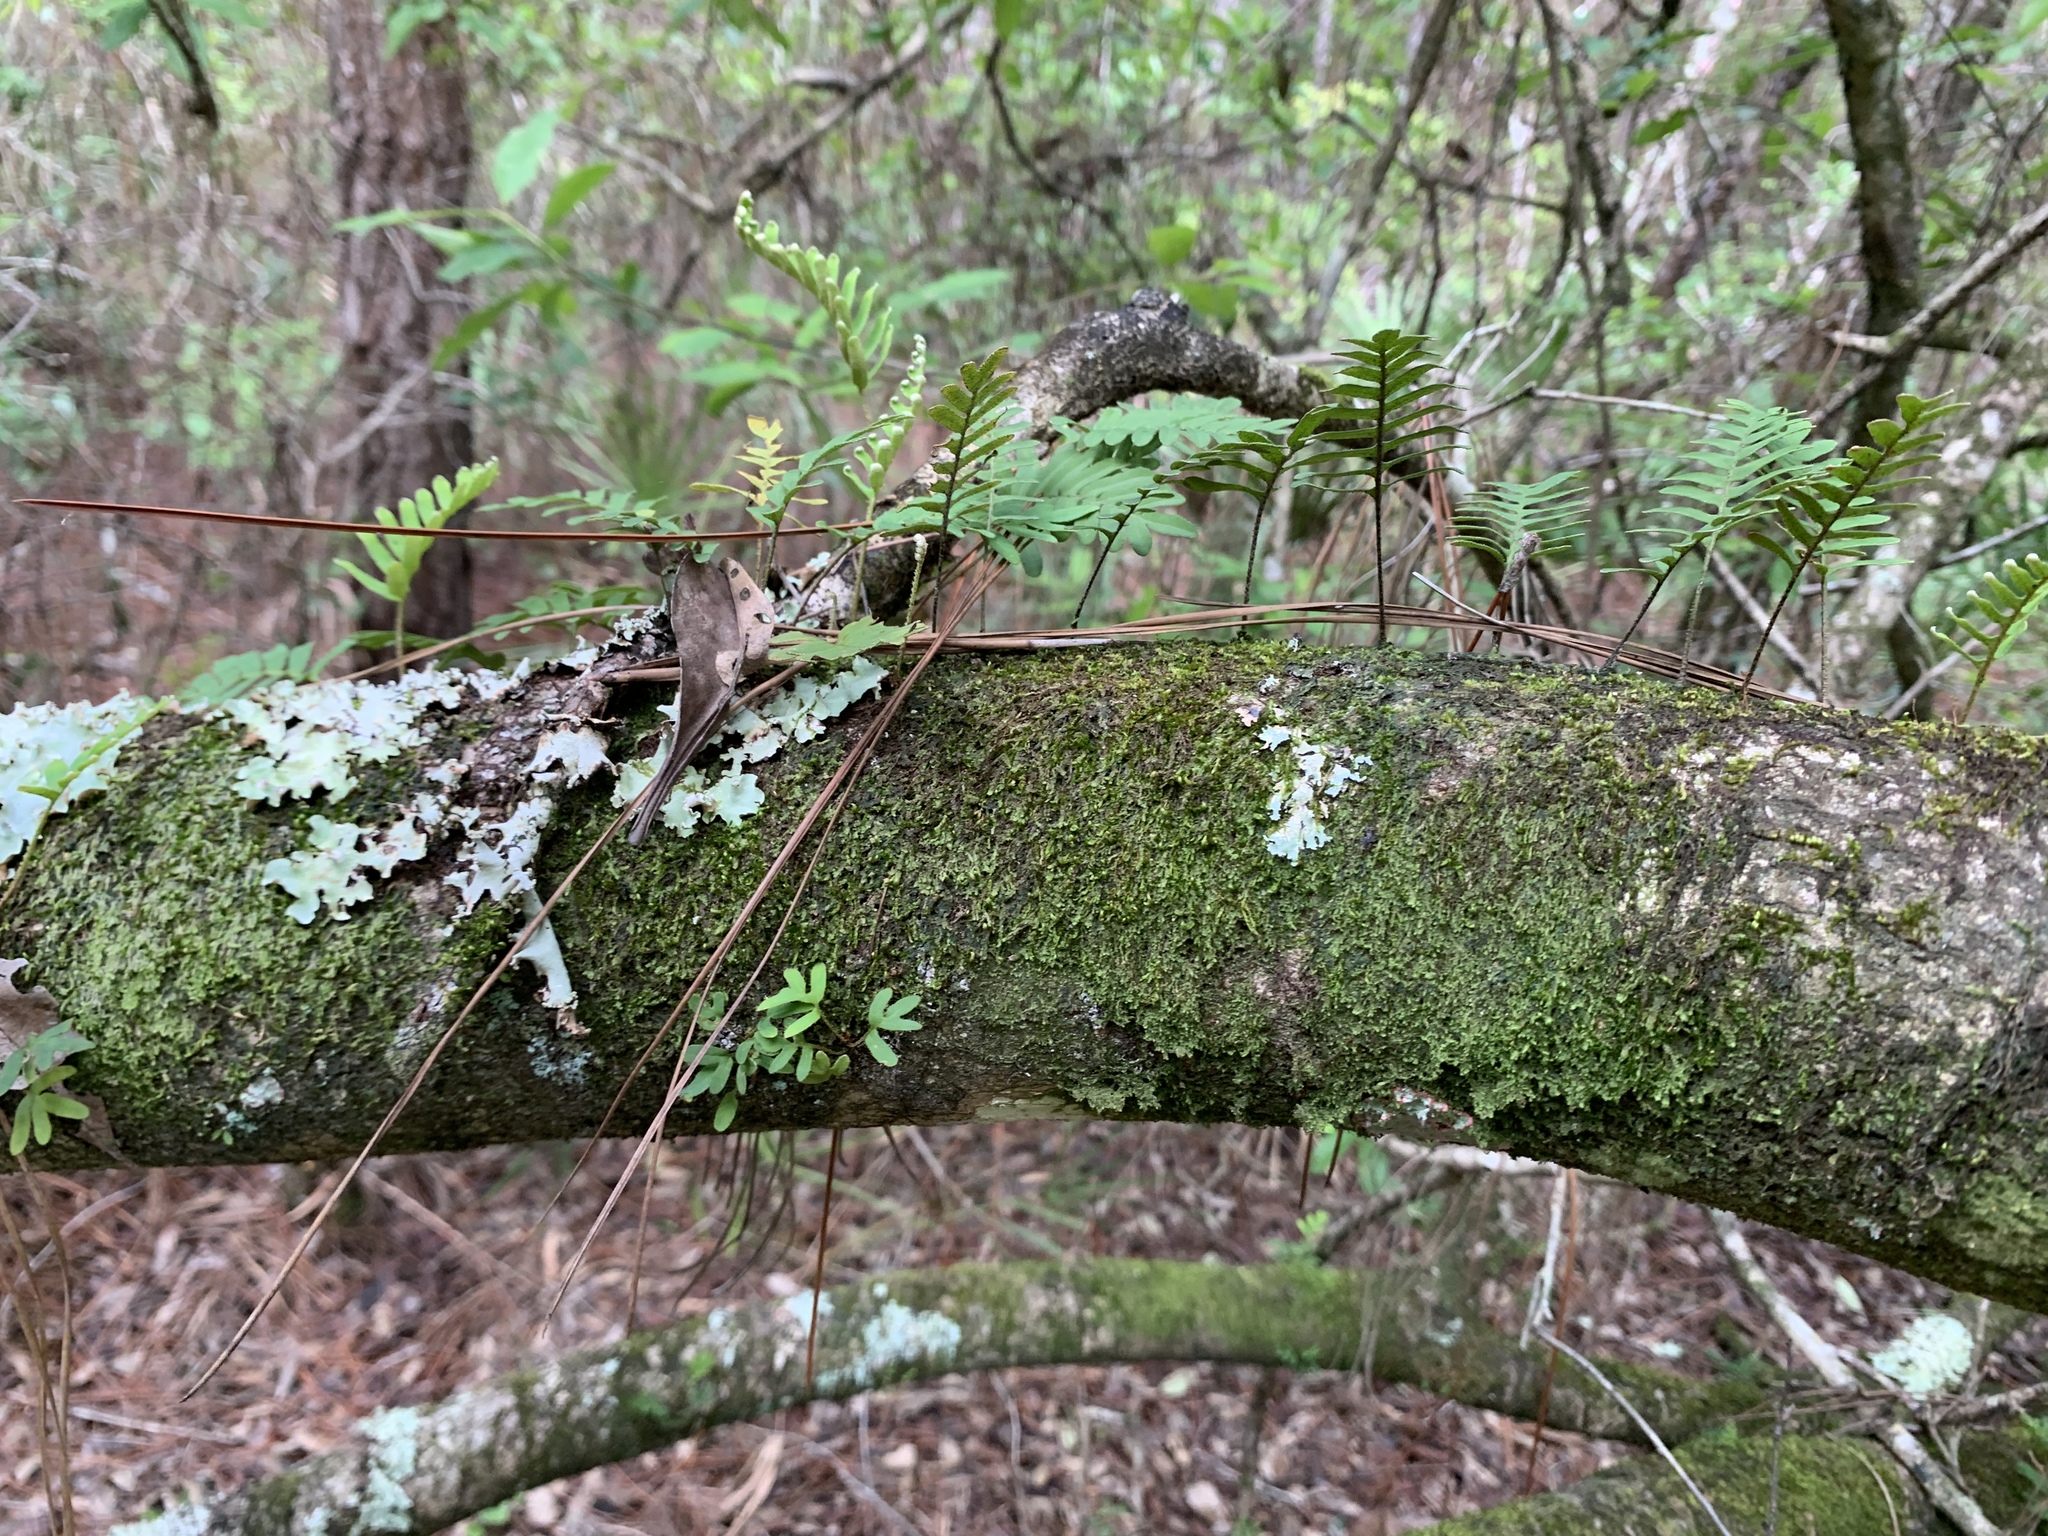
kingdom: Plantae
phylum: Tracheophyta
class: Polypodiopsida
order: Polypodiales
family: Polypodiaceae
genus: Pleopeltis
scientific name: Pleopeltis michauxiana
